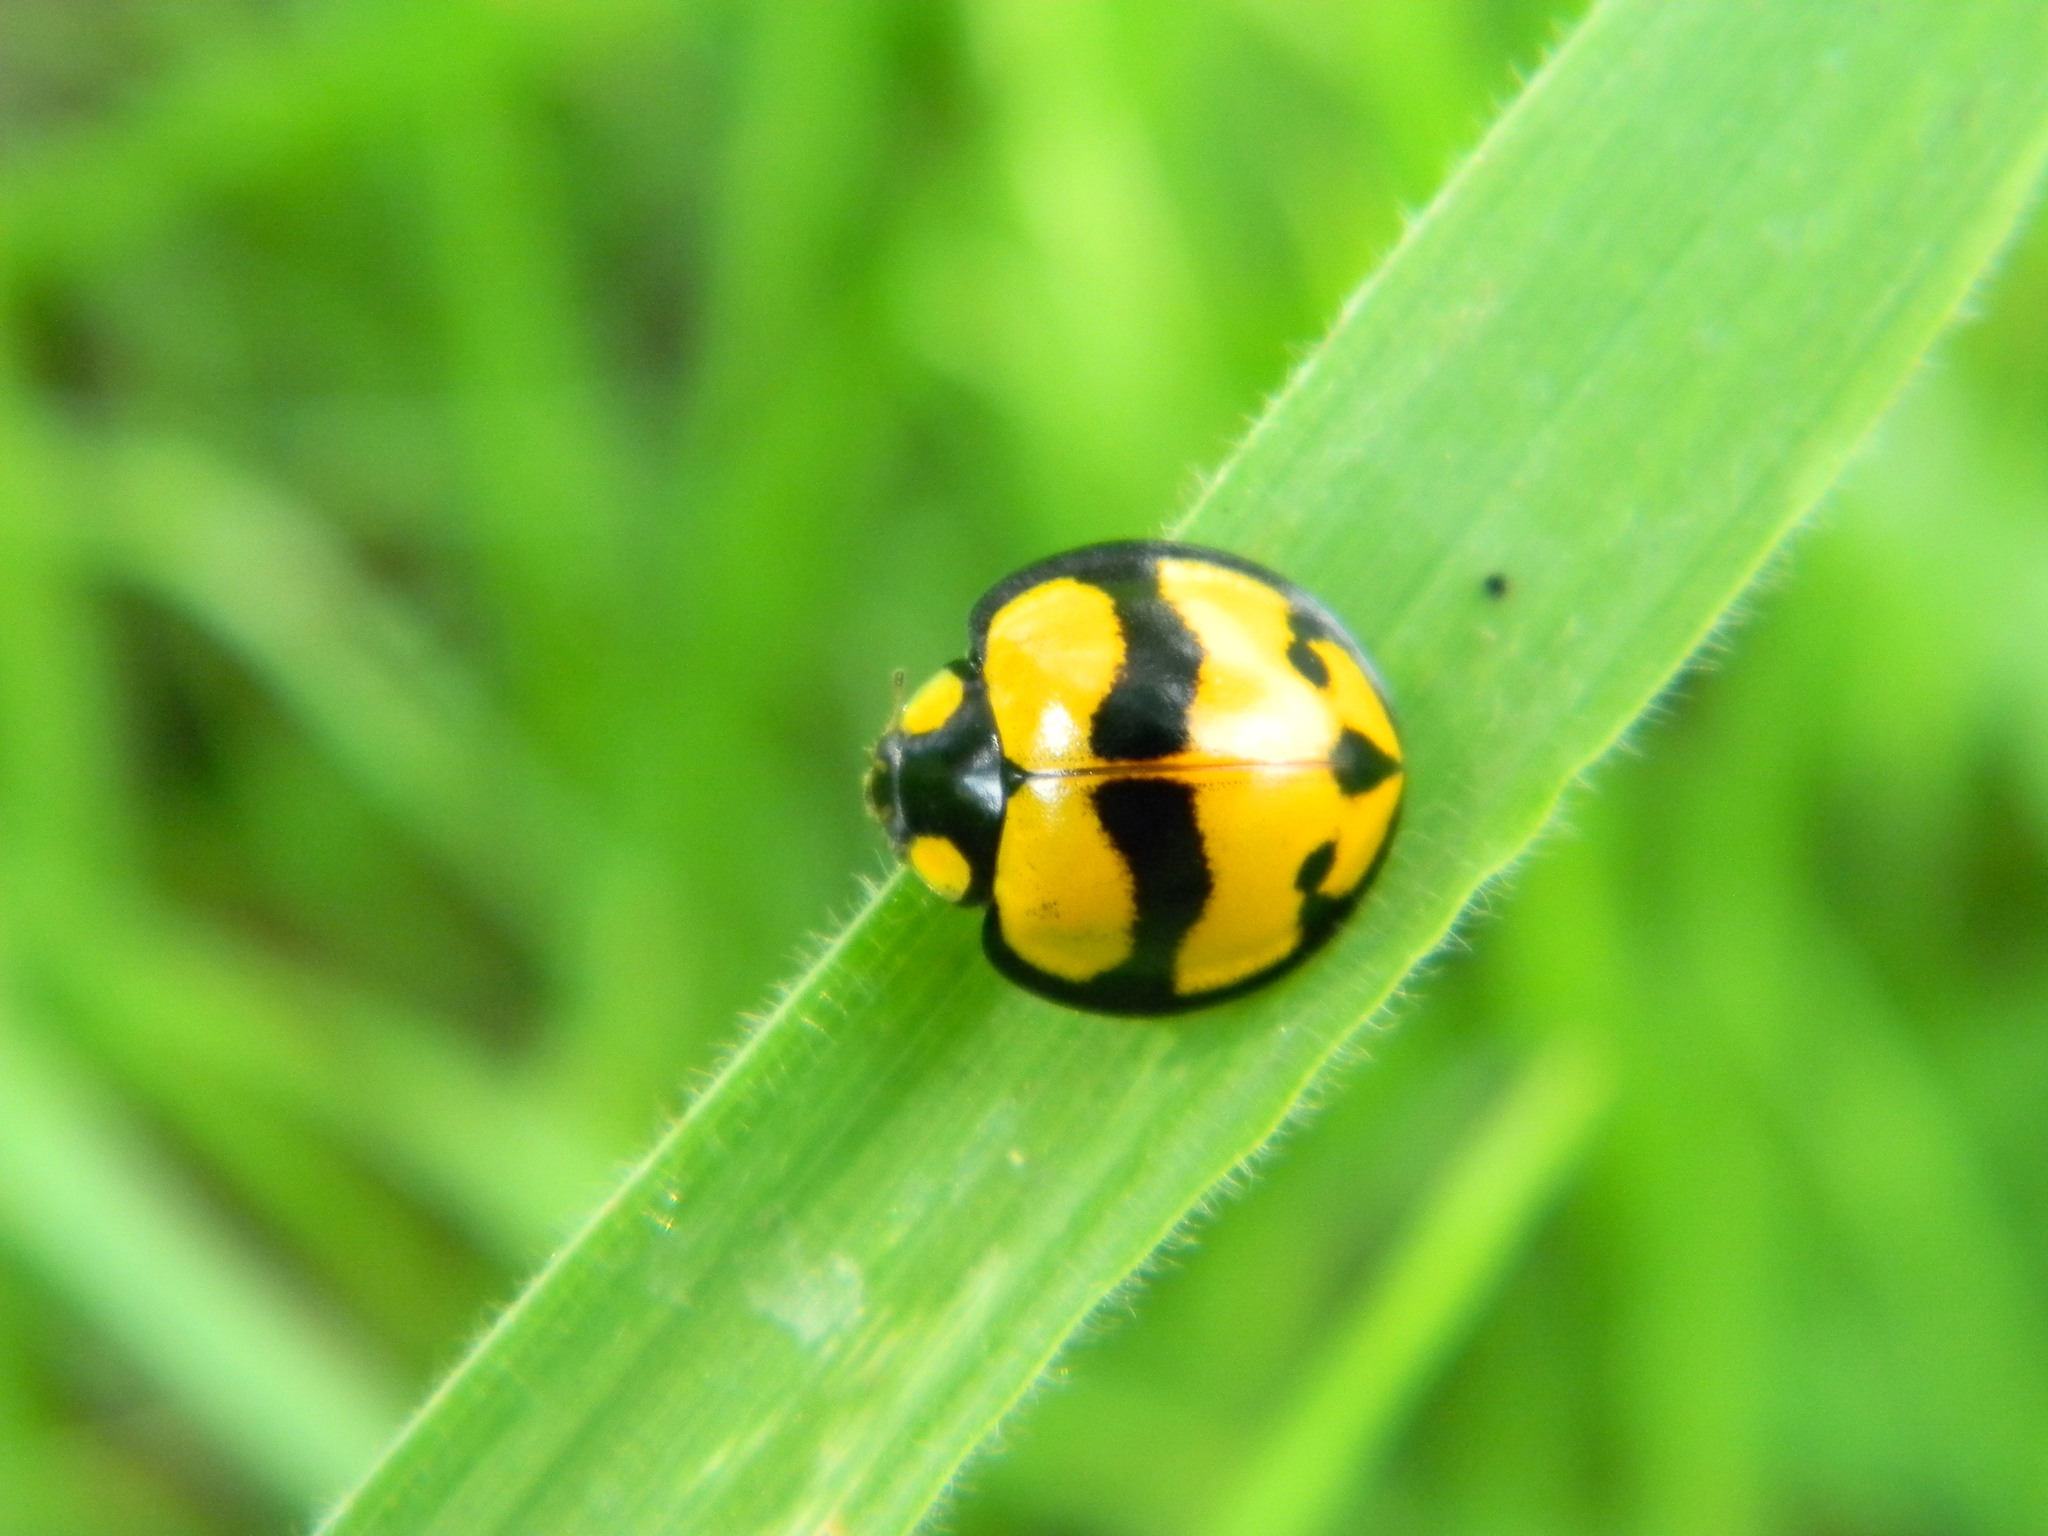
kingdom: Animalia
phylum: Arthropoda
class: Insecta
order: Coleoptera
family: Coccinellidae
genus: Neda
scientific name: Neda norrisi
